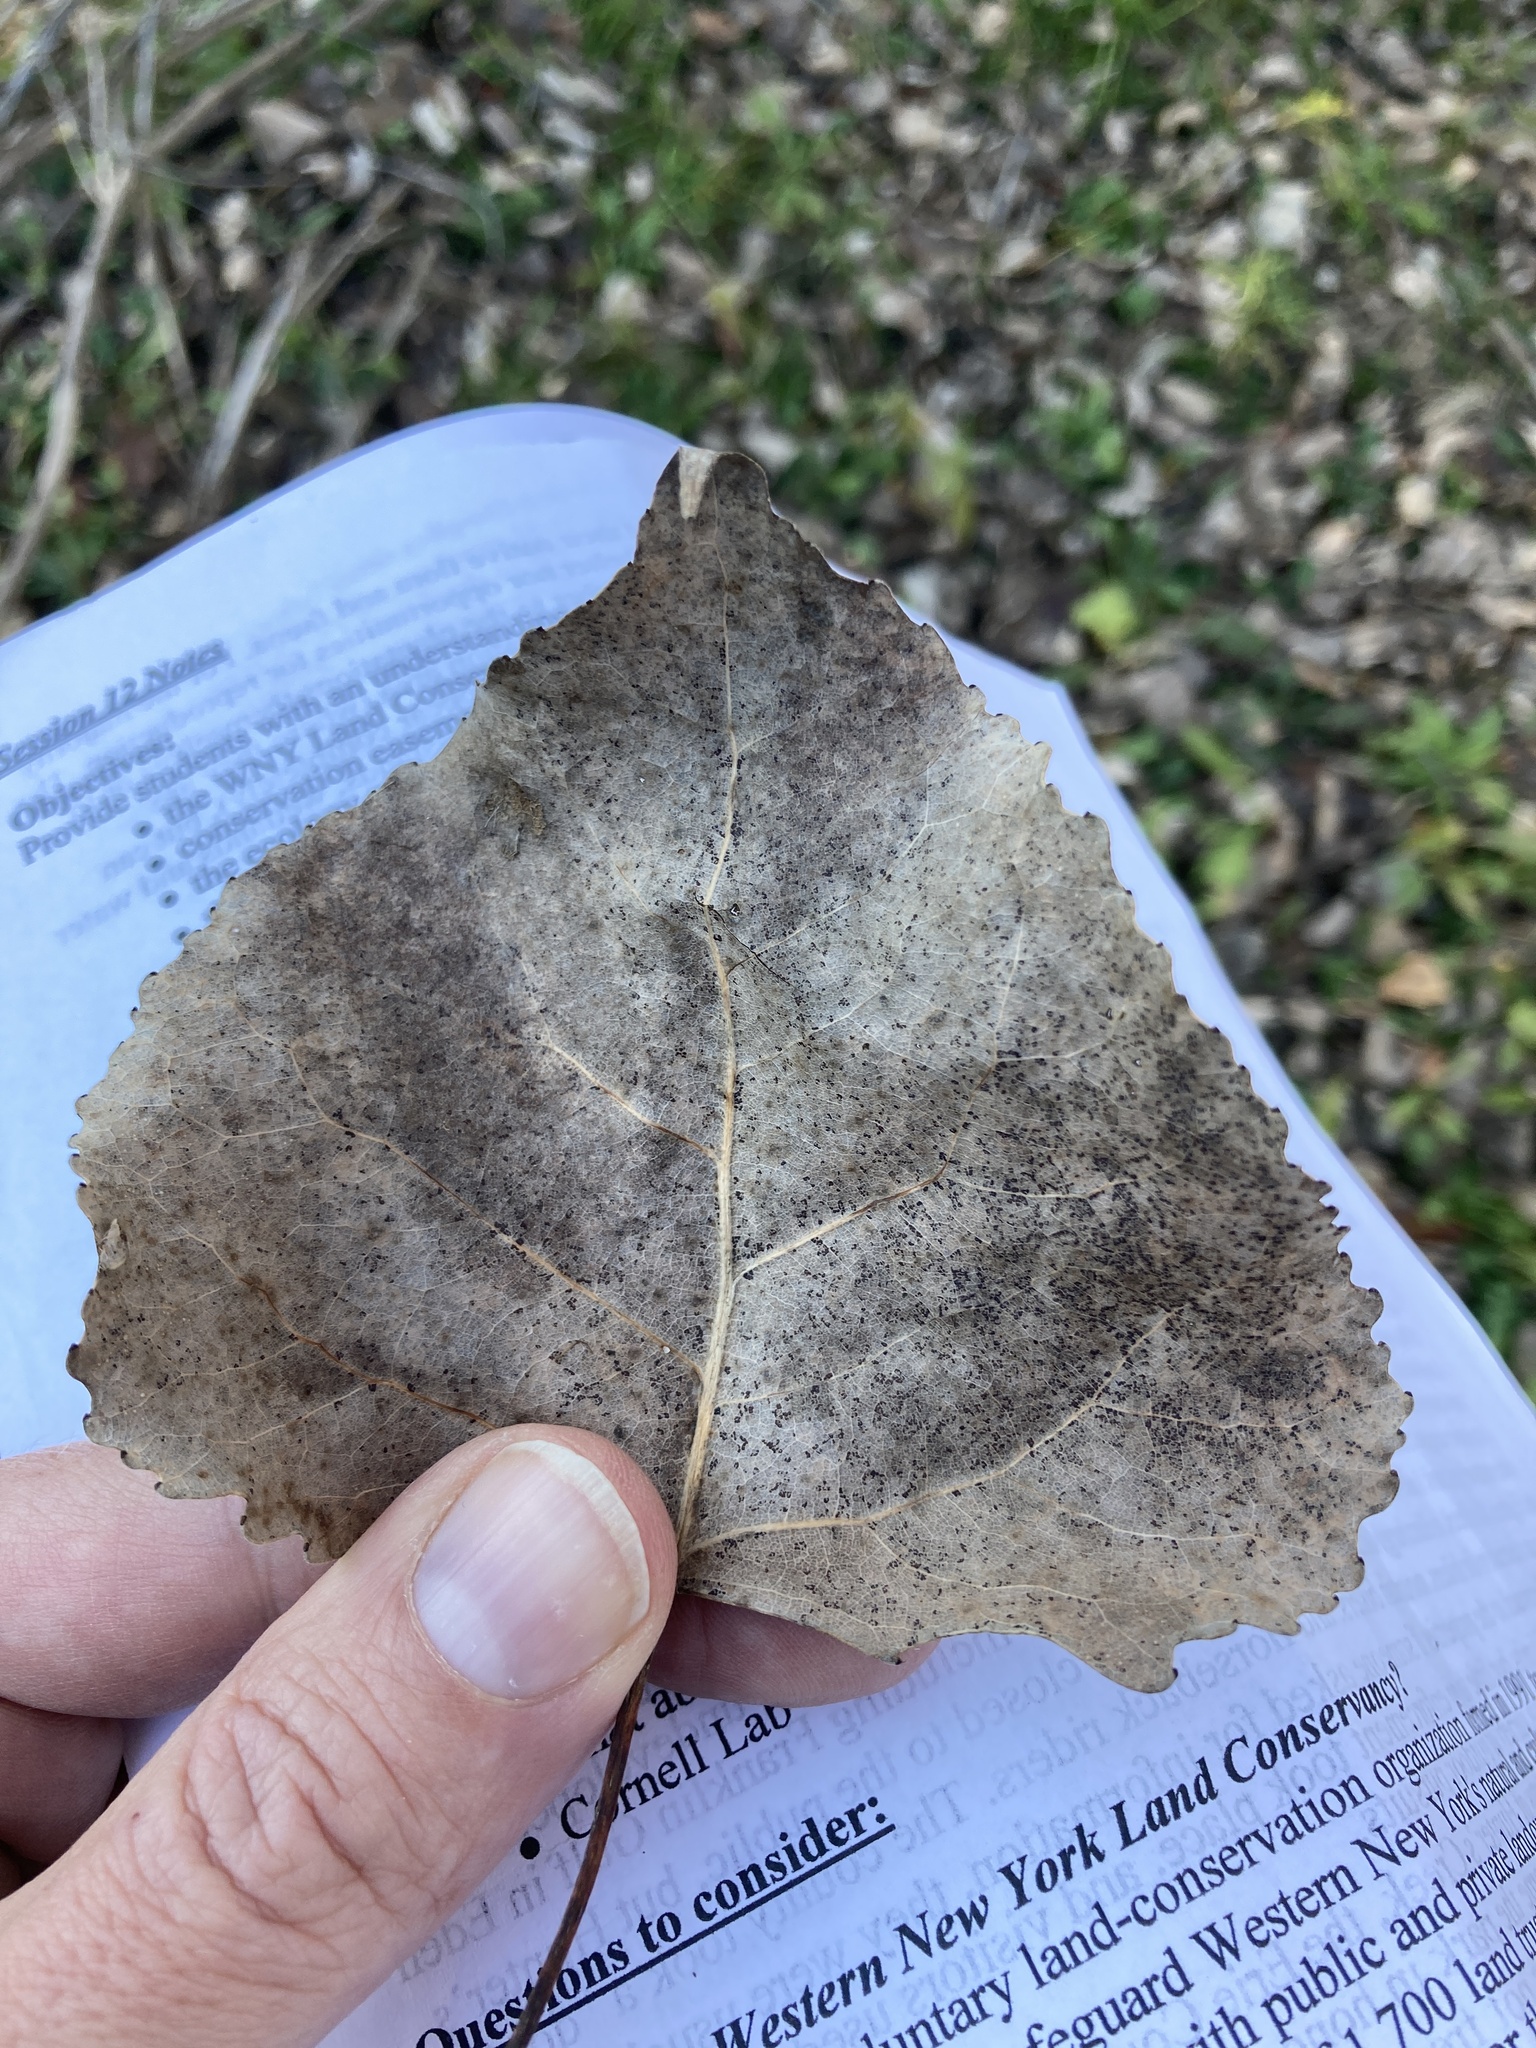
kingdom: Plantae
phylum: Tracheophyta
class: Magnoliopsida
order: Malpighiales
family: Salicaceae
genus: Populus
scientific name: Populus deltoides
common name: Eastern cottonwood
